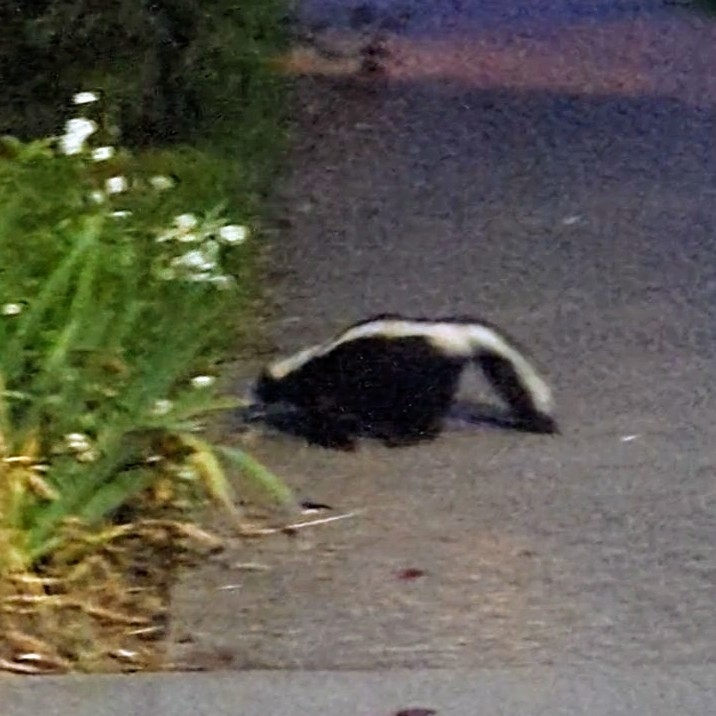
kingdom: Animalia
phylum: Chordata
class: Mammalia
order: Carnivora
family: Mephitidae
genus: Mephitis
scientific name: Mephitis mephitis
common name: Striped skunk
